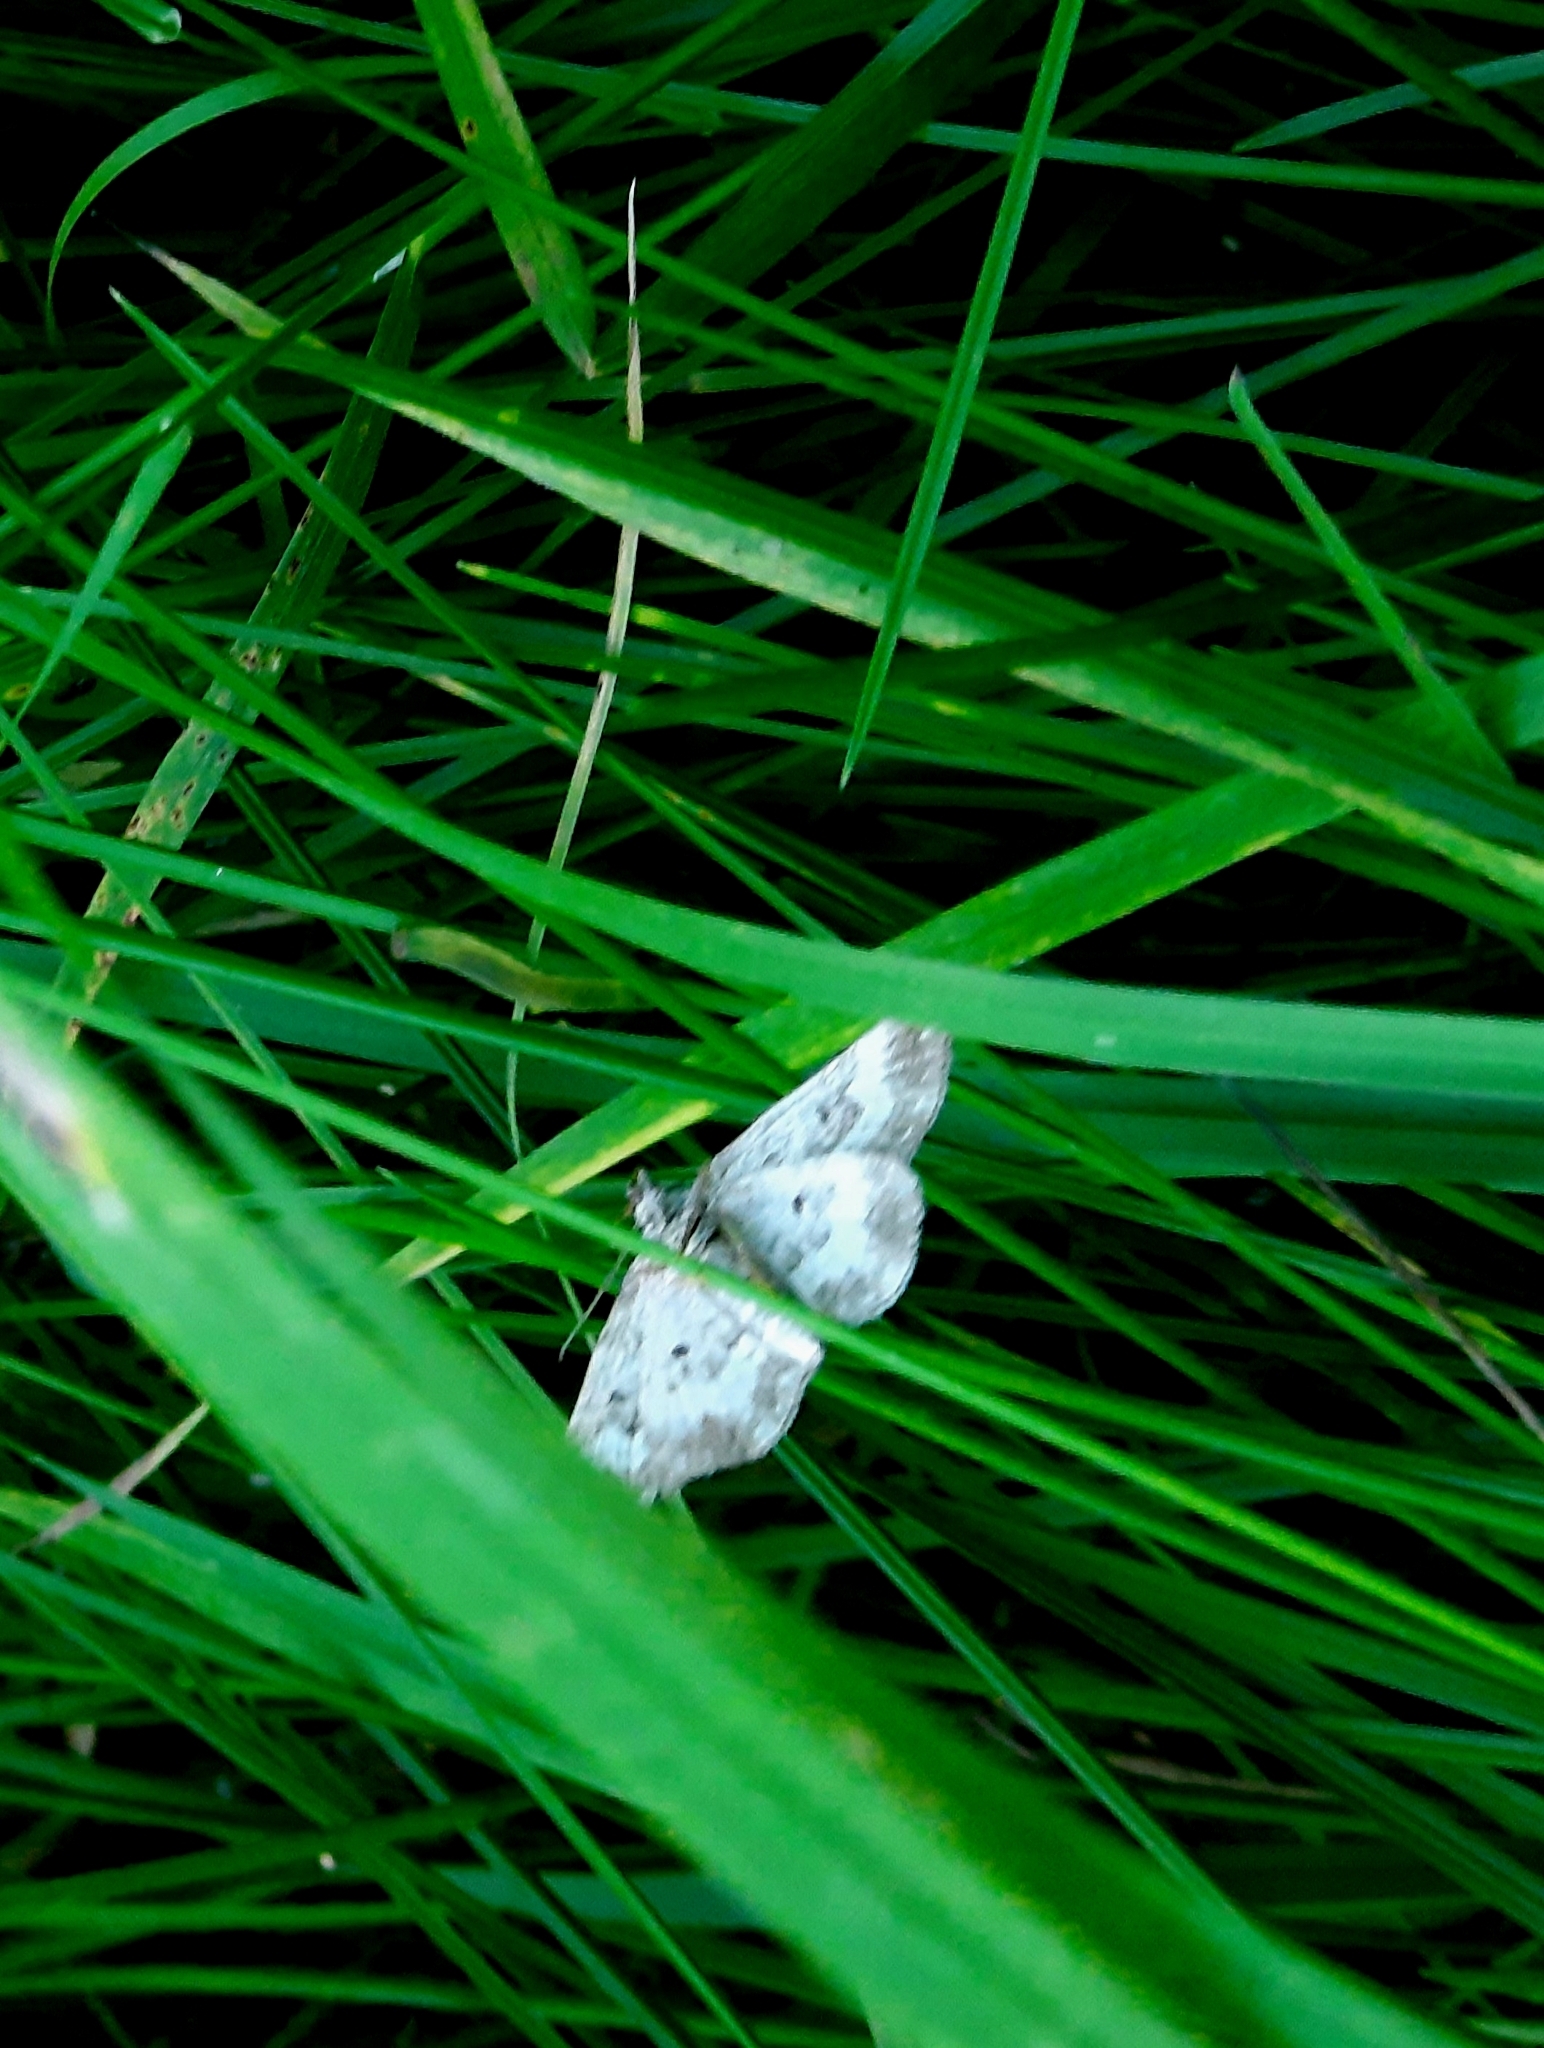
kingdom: Animalia
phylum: Arthropoda
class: Insecta
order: Lepidoptera
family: Geometridae
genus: Epirrhoe
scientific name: Epirrhoe alternata
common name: Common carpet
